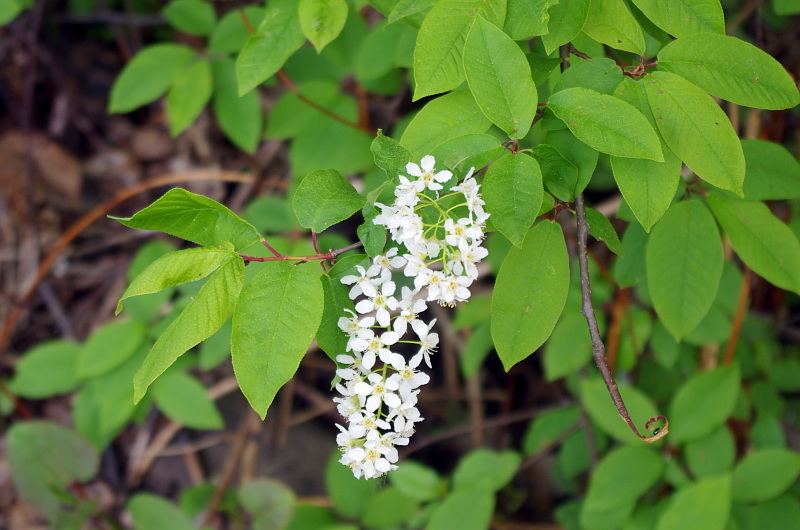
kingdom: Plantae
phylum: Tracheophyta
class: Magnoliopsida
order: Rosales
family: Rosaceae
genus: Prunus
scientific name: Prunus padus
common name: Bird cherry
